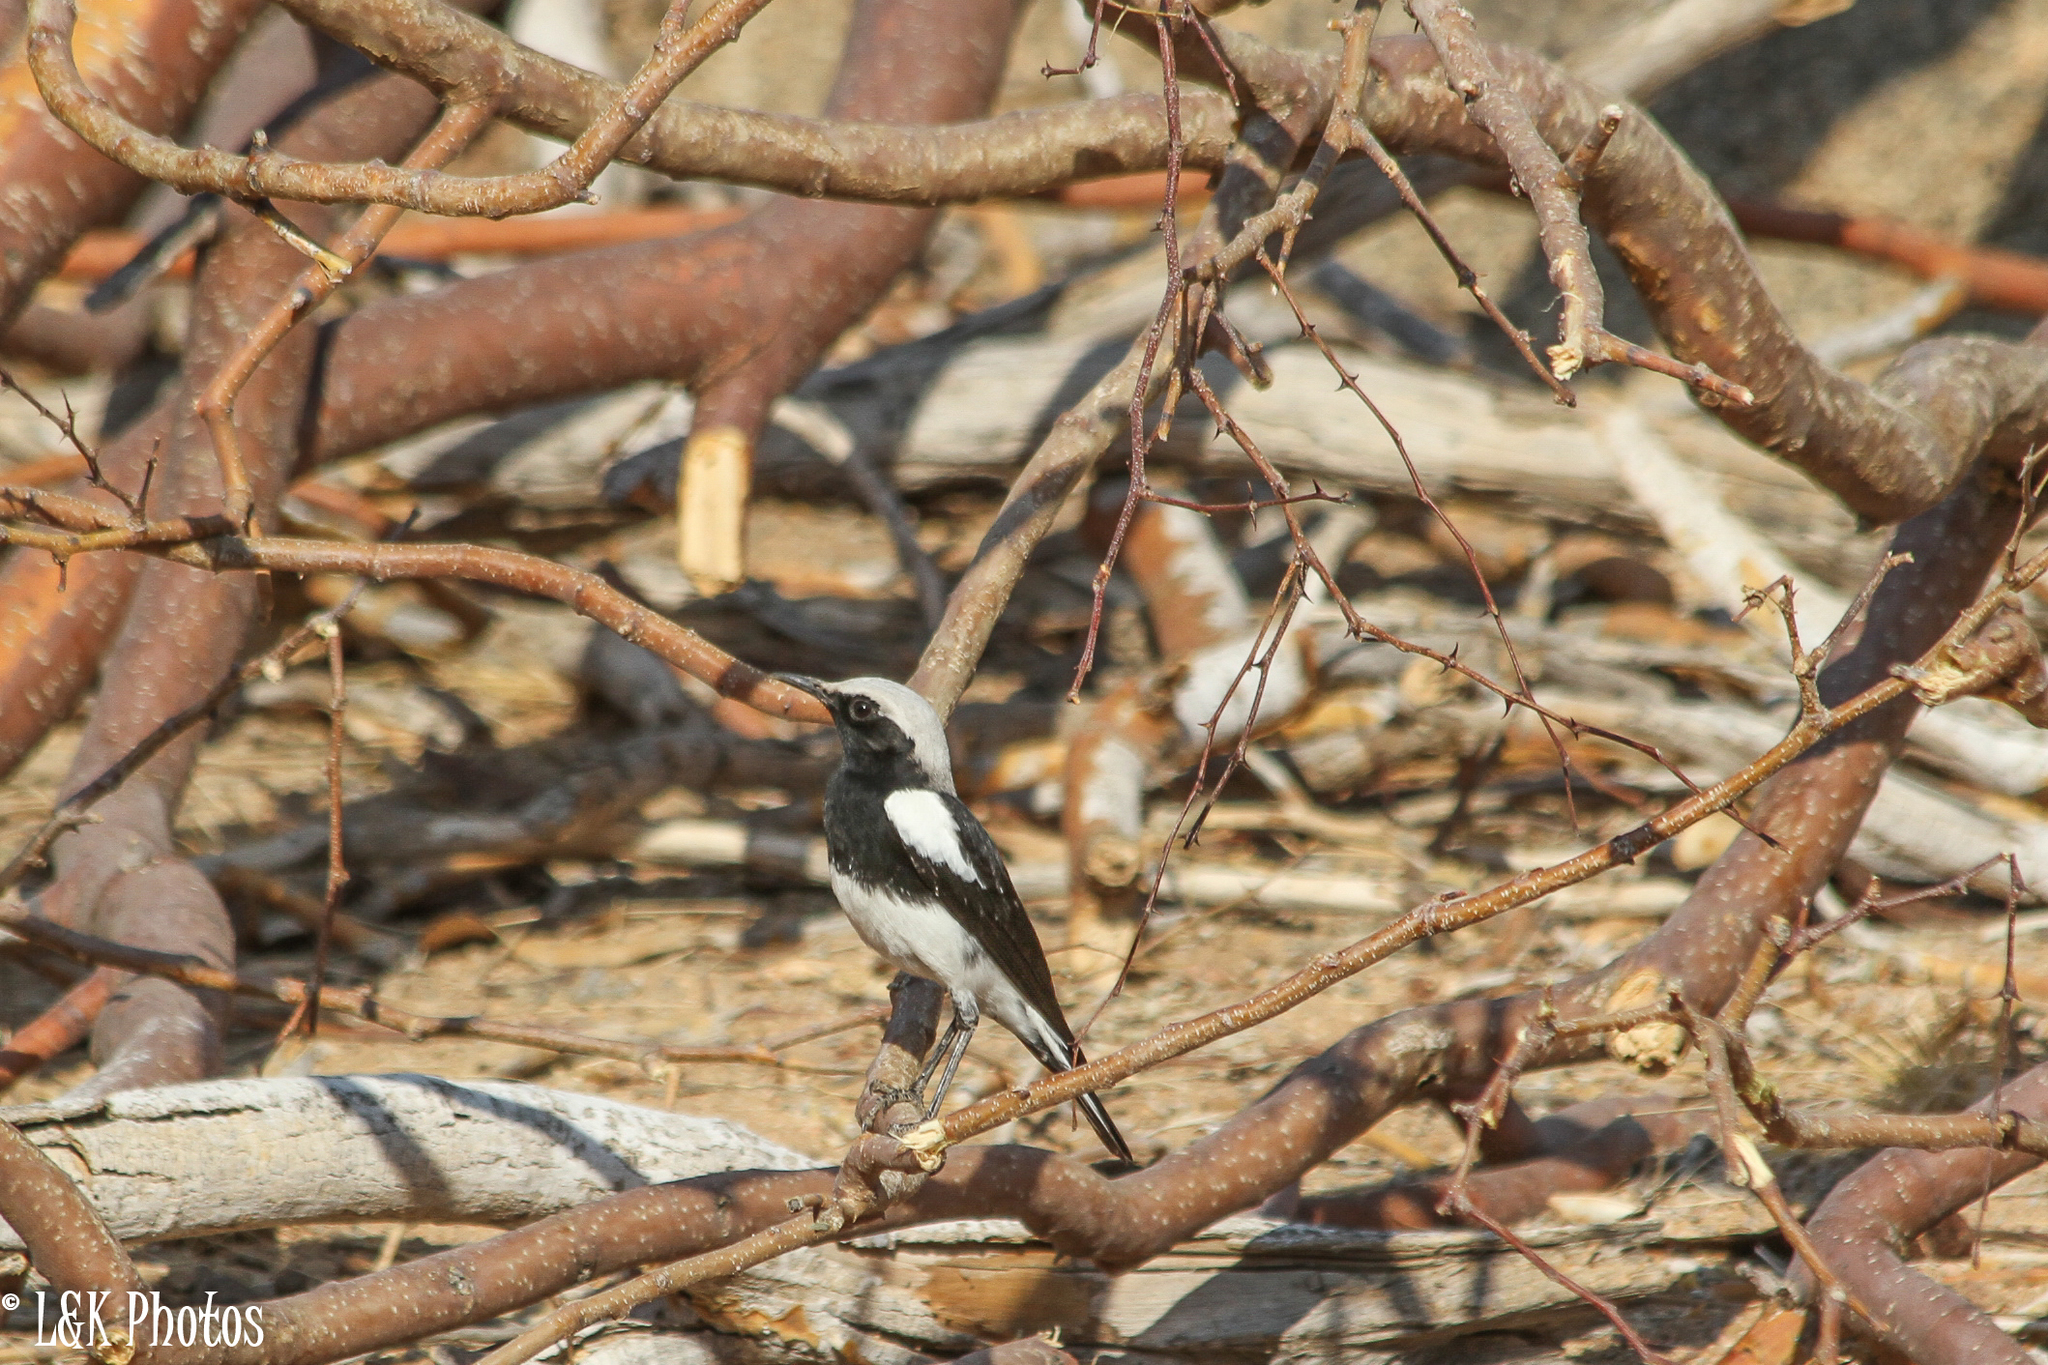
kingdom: Animalia
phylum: Chordata
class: Aves
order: Passeriformes
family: Muscicapidae
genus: Oenanthe
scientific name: Oenanthe monticola
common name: Mountain wheatear
